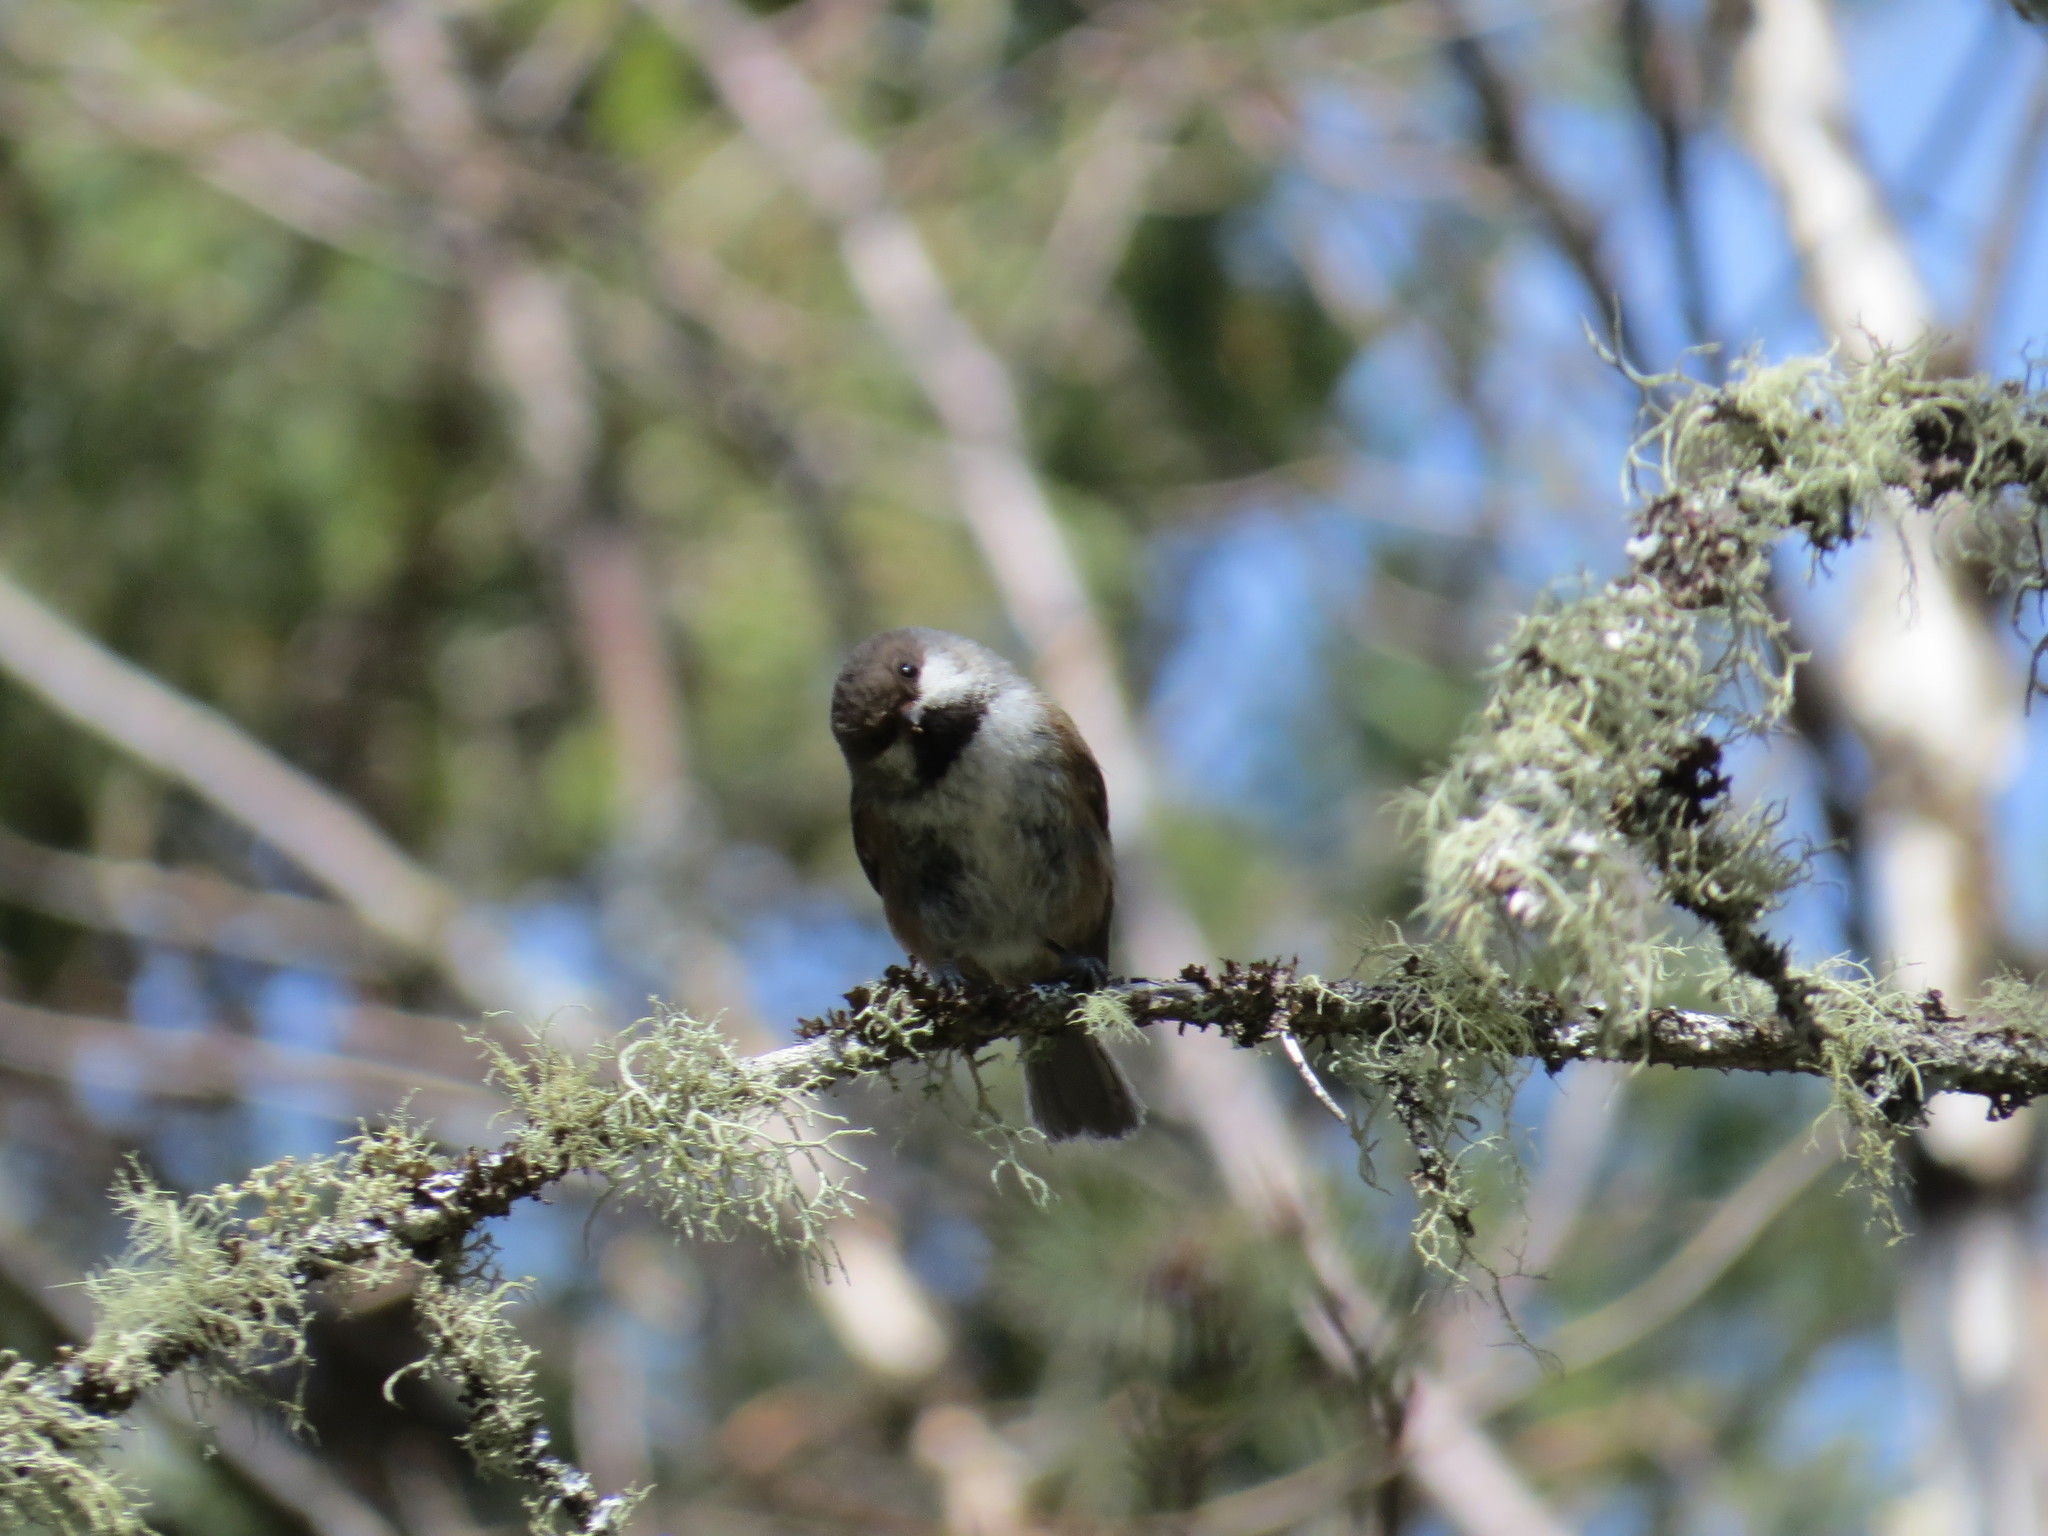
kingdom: Animalia
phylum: Chordata
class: Aves
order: Passeriformes
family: Paridae
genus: Poecile
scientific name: Poecile hudsonicus
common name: Boreal chickadee
